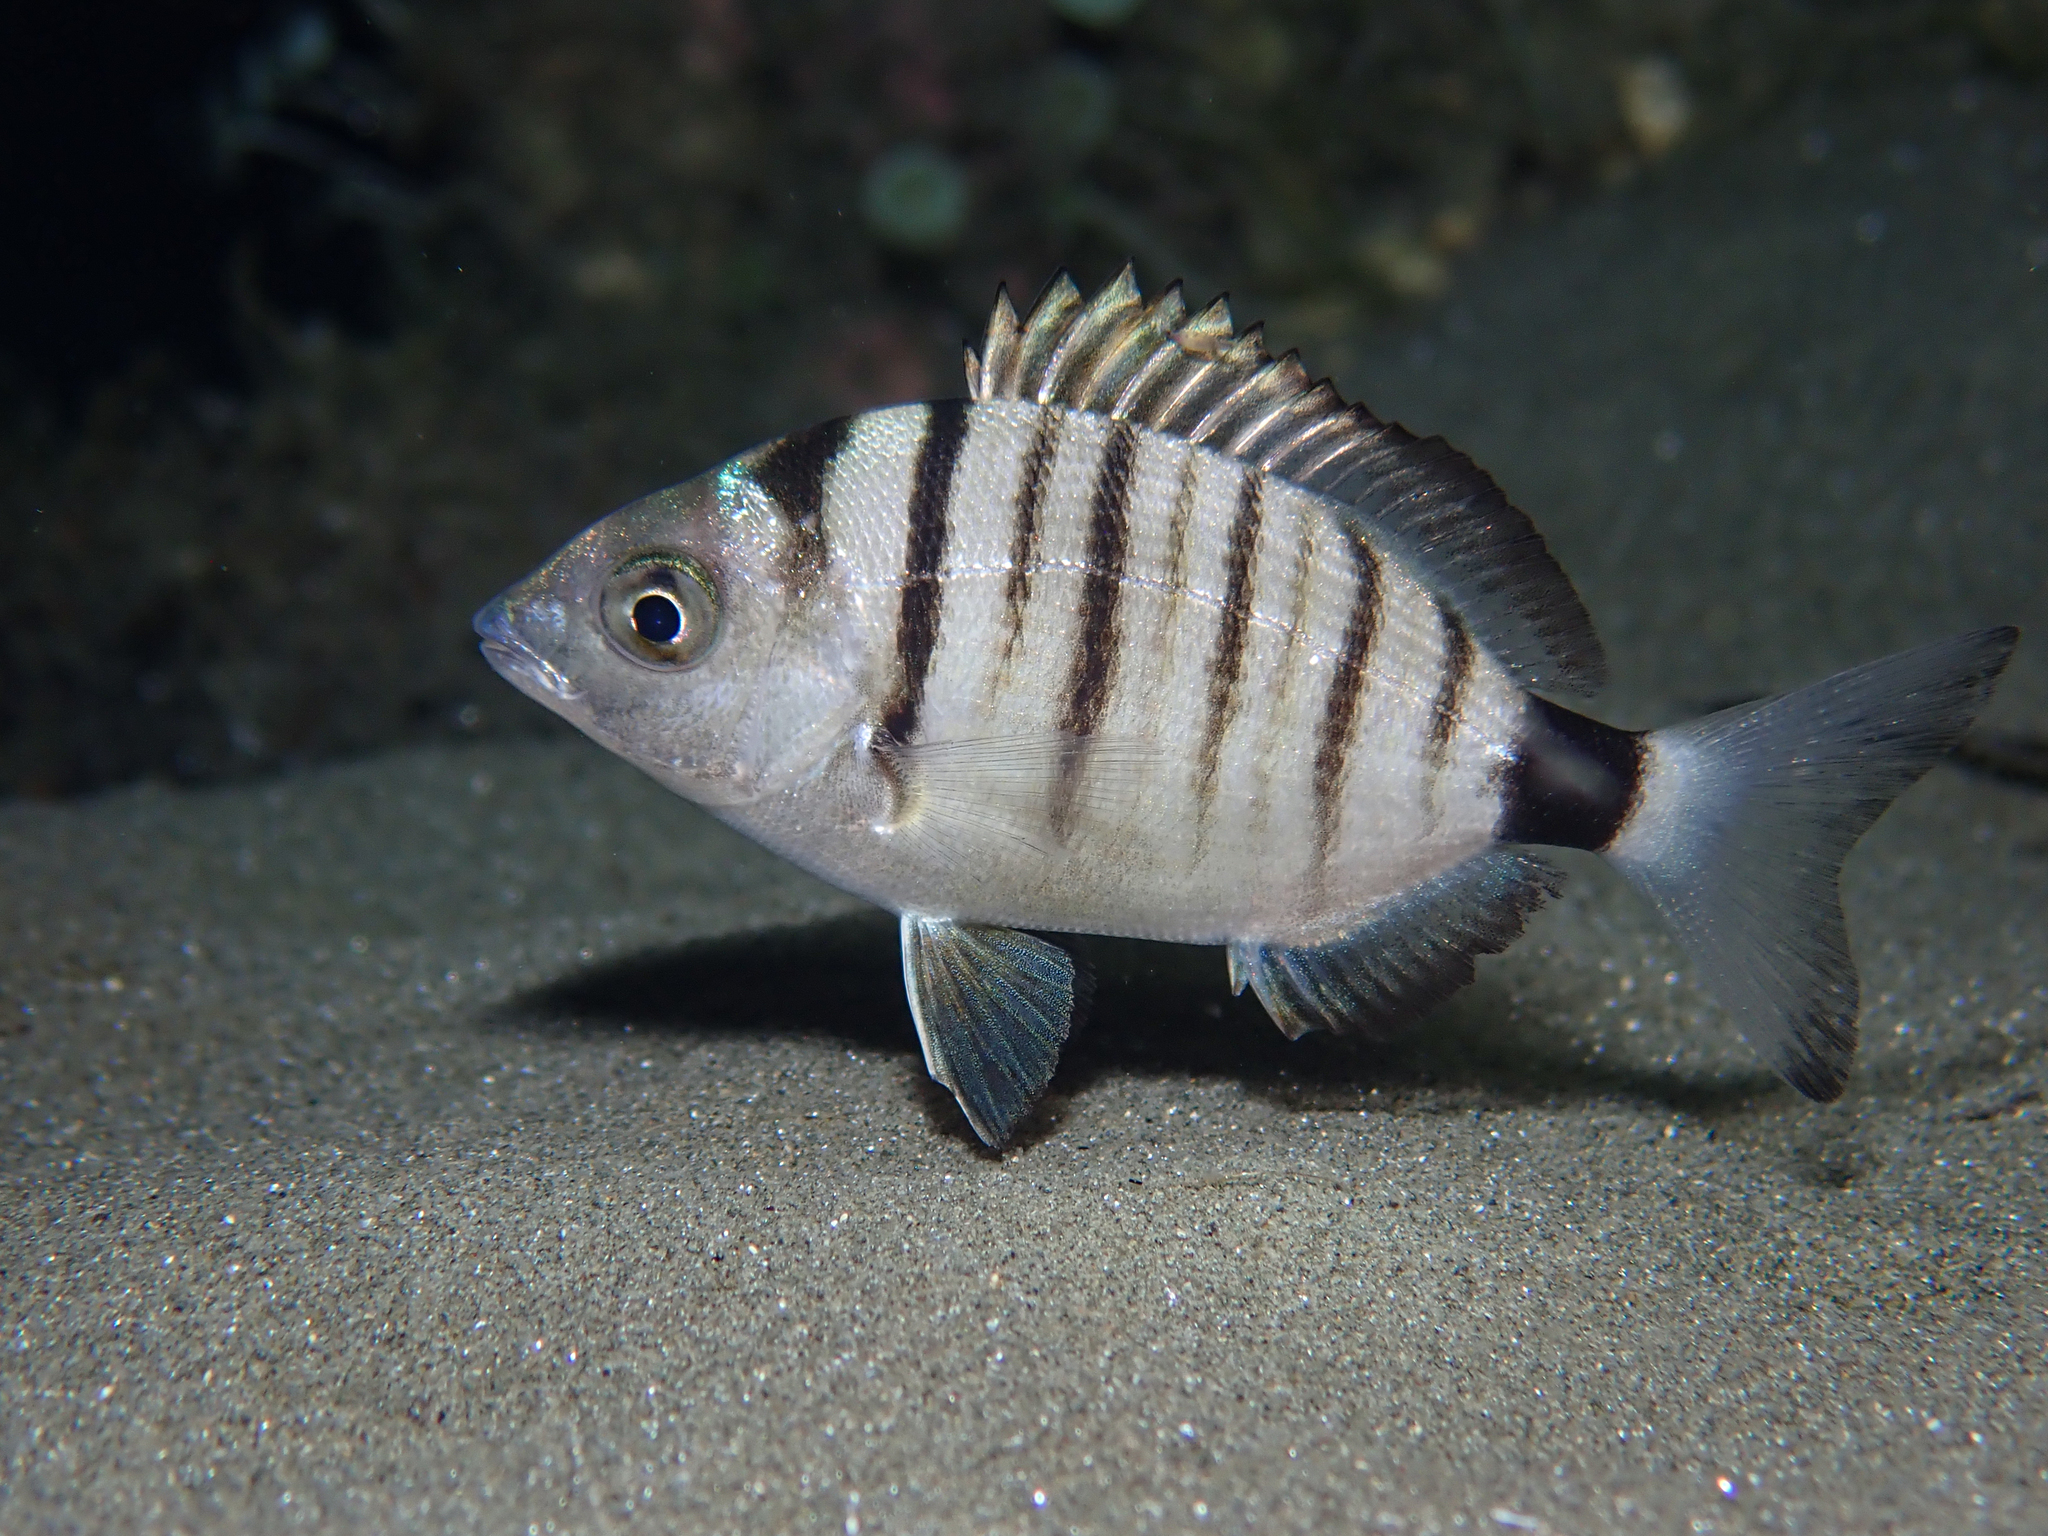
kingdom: Animalia
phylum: Chordata
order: Perciformes
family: Sparidae
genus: Diplodus
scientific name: Diplodus puntazzo
